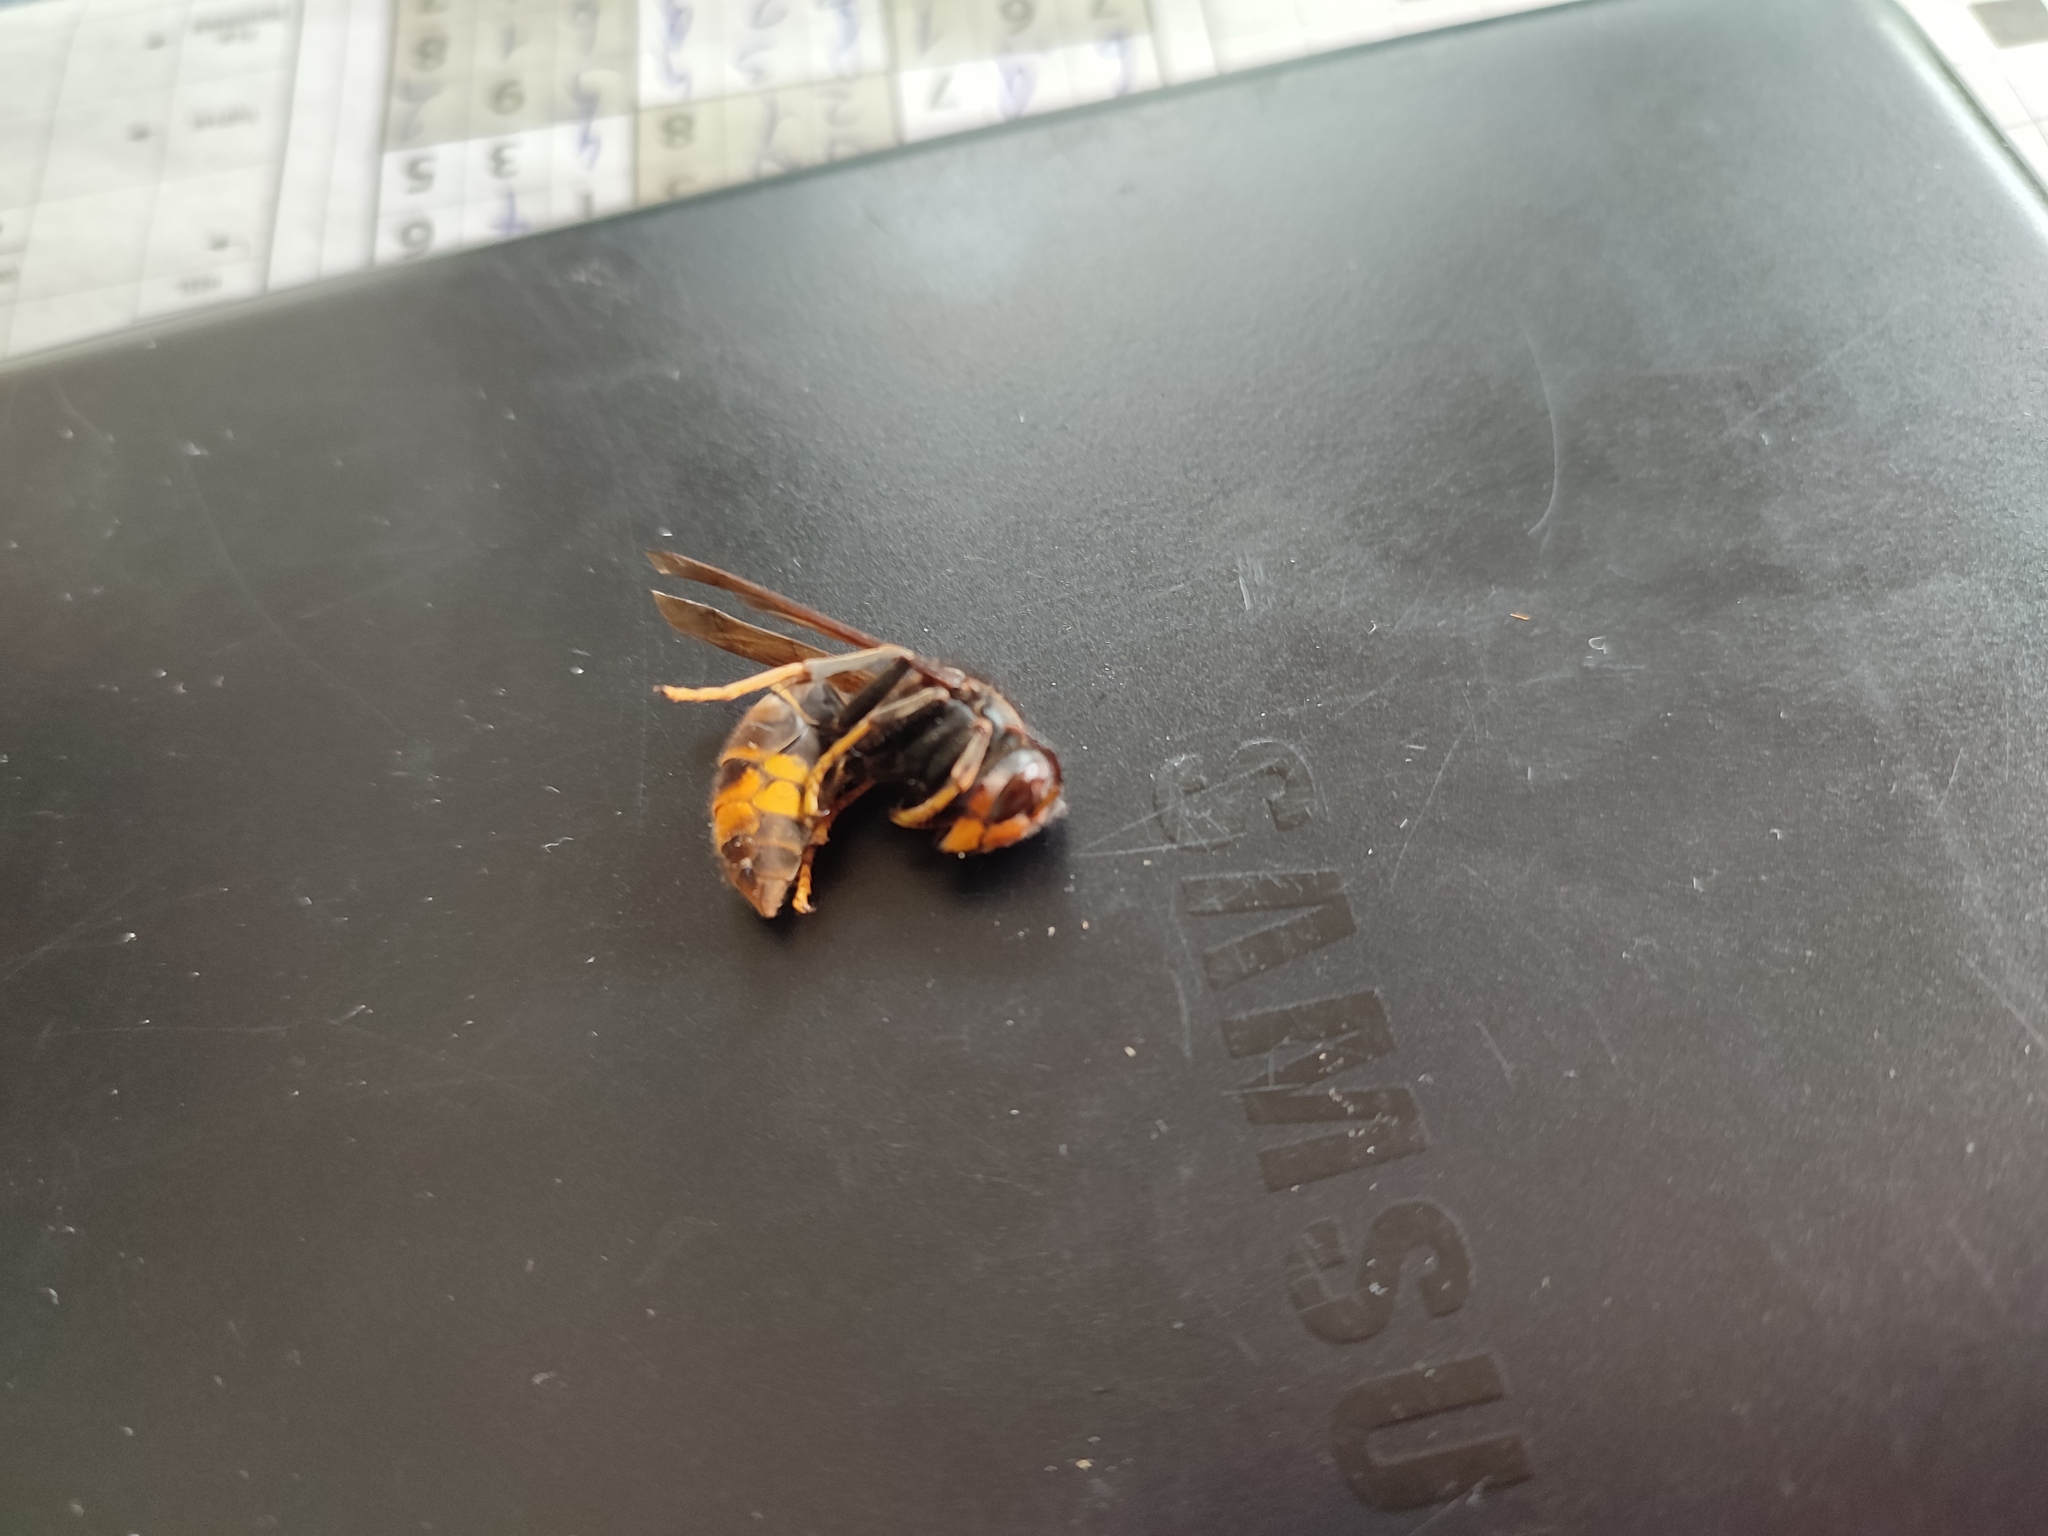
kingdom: Animalia
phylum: Arthropoda
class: Insecta
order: Hymenoptera
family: Vespidae
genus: Vespa
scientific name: Vespa velutina
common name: Asian hornet
